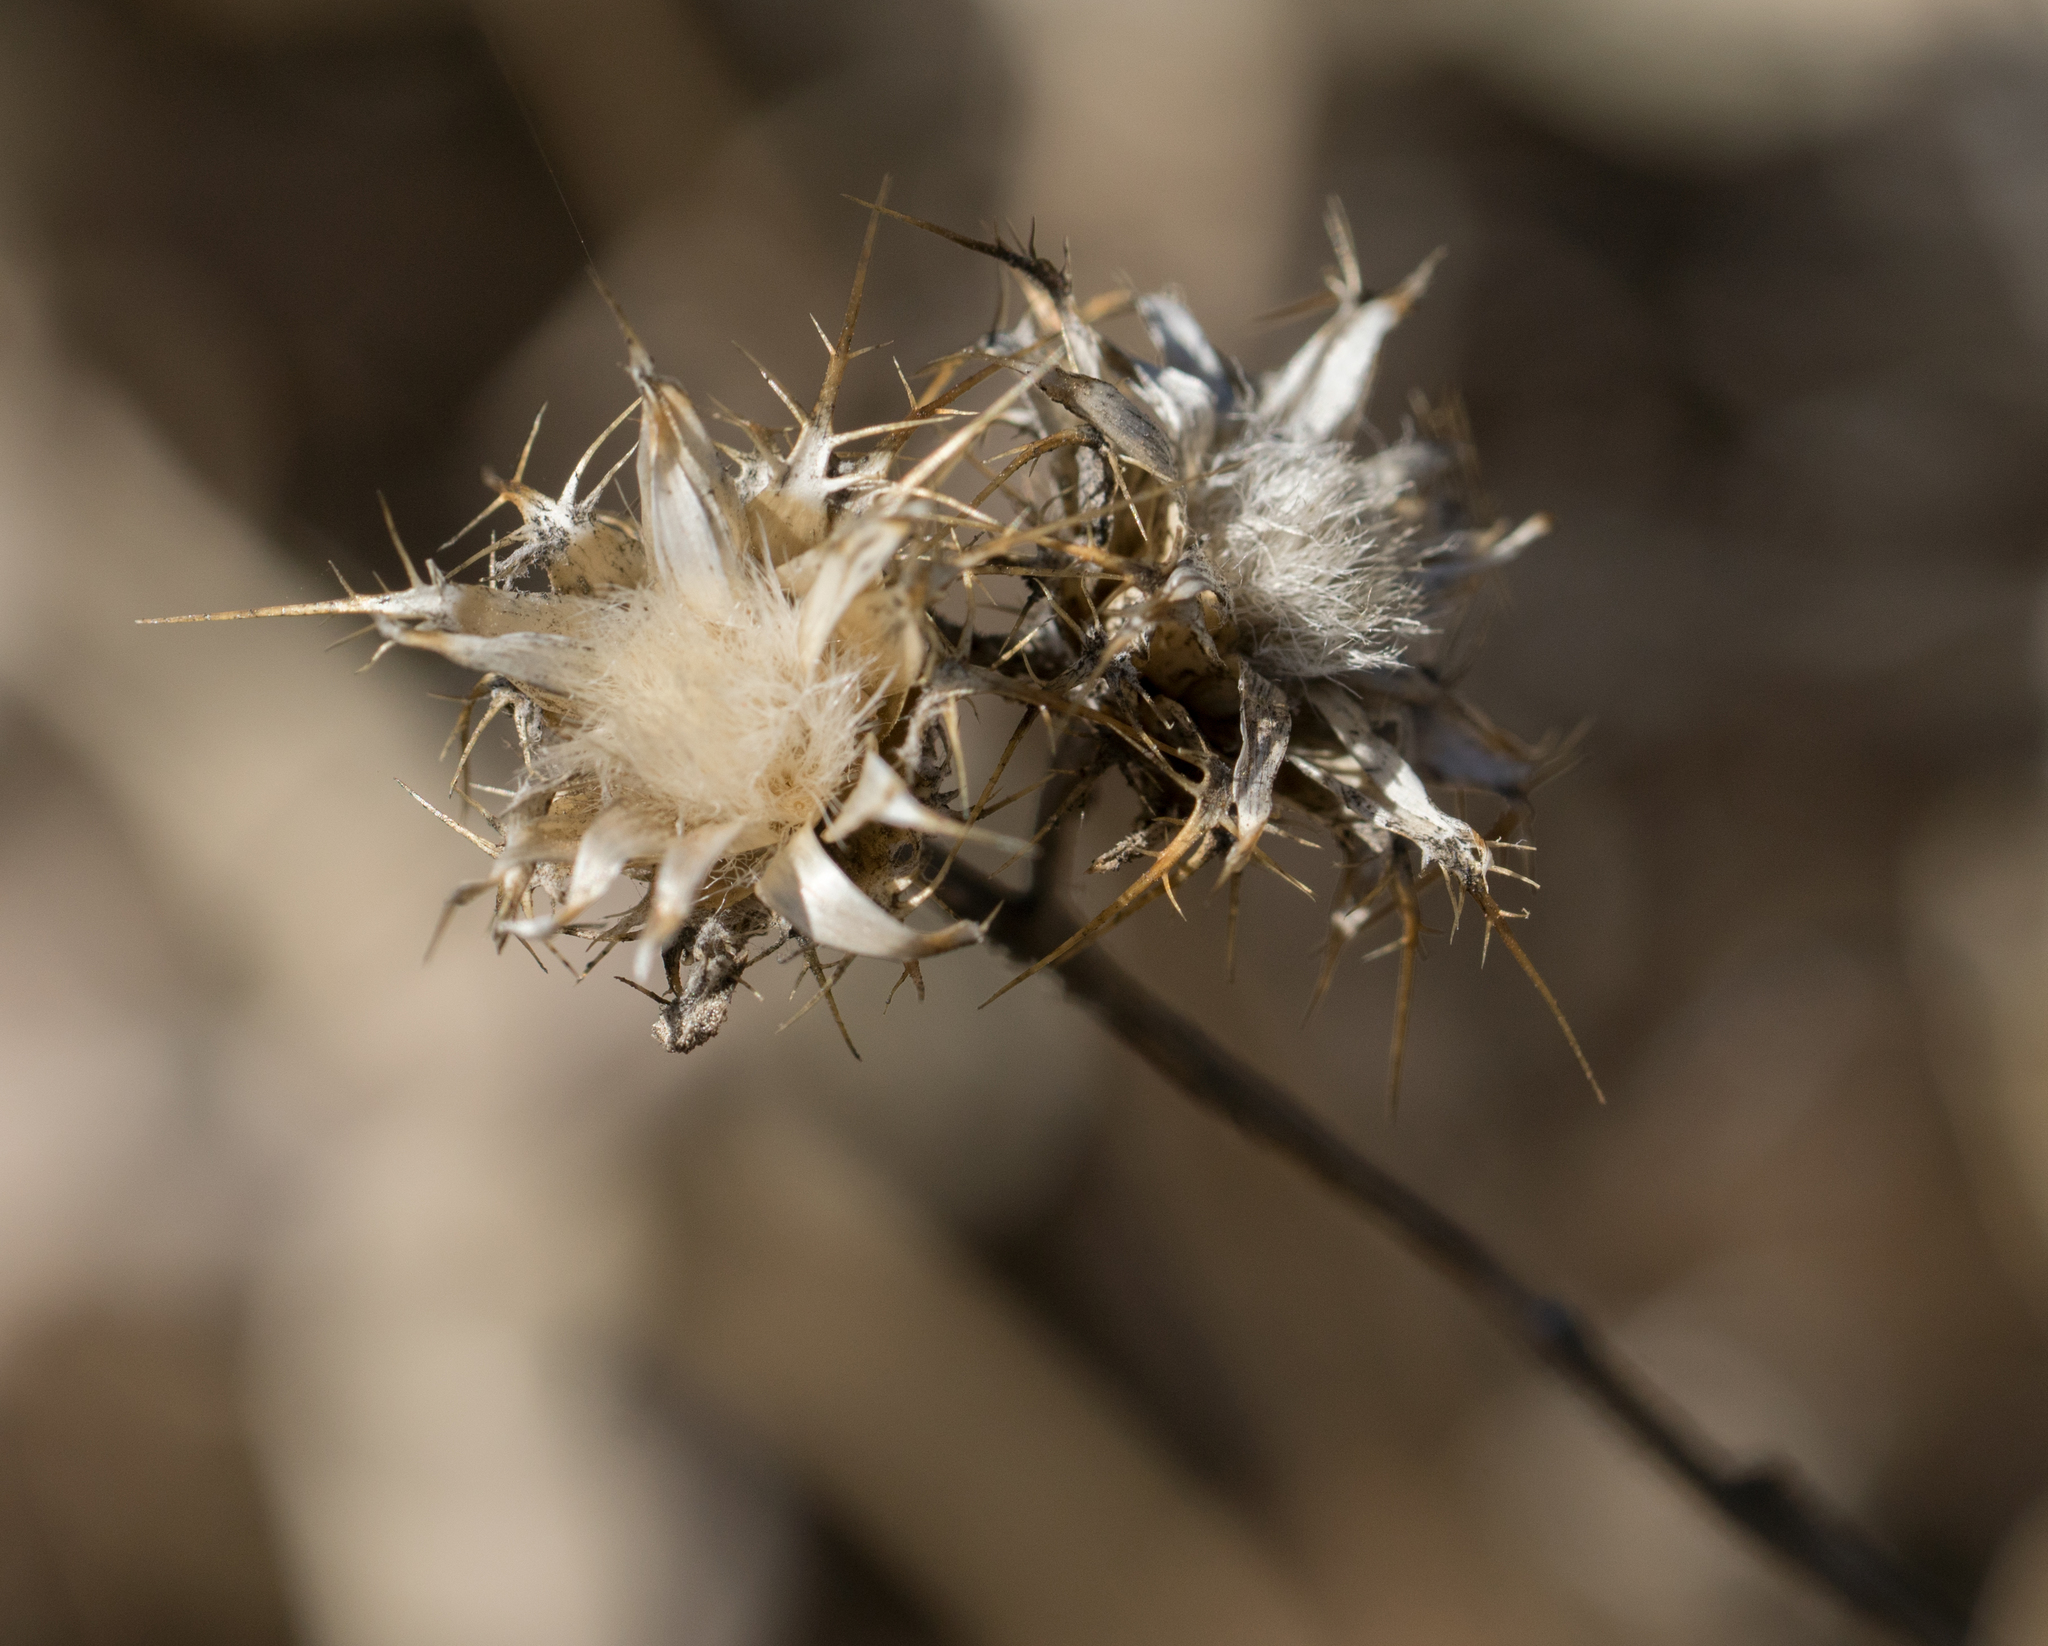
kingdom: Plantae
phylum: Tracheophyta
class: Magnoliopsida
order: Asterales
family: Asteraceae
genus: Centaurea
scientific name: Centaurea melitensis
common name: Maltese star-thistle
